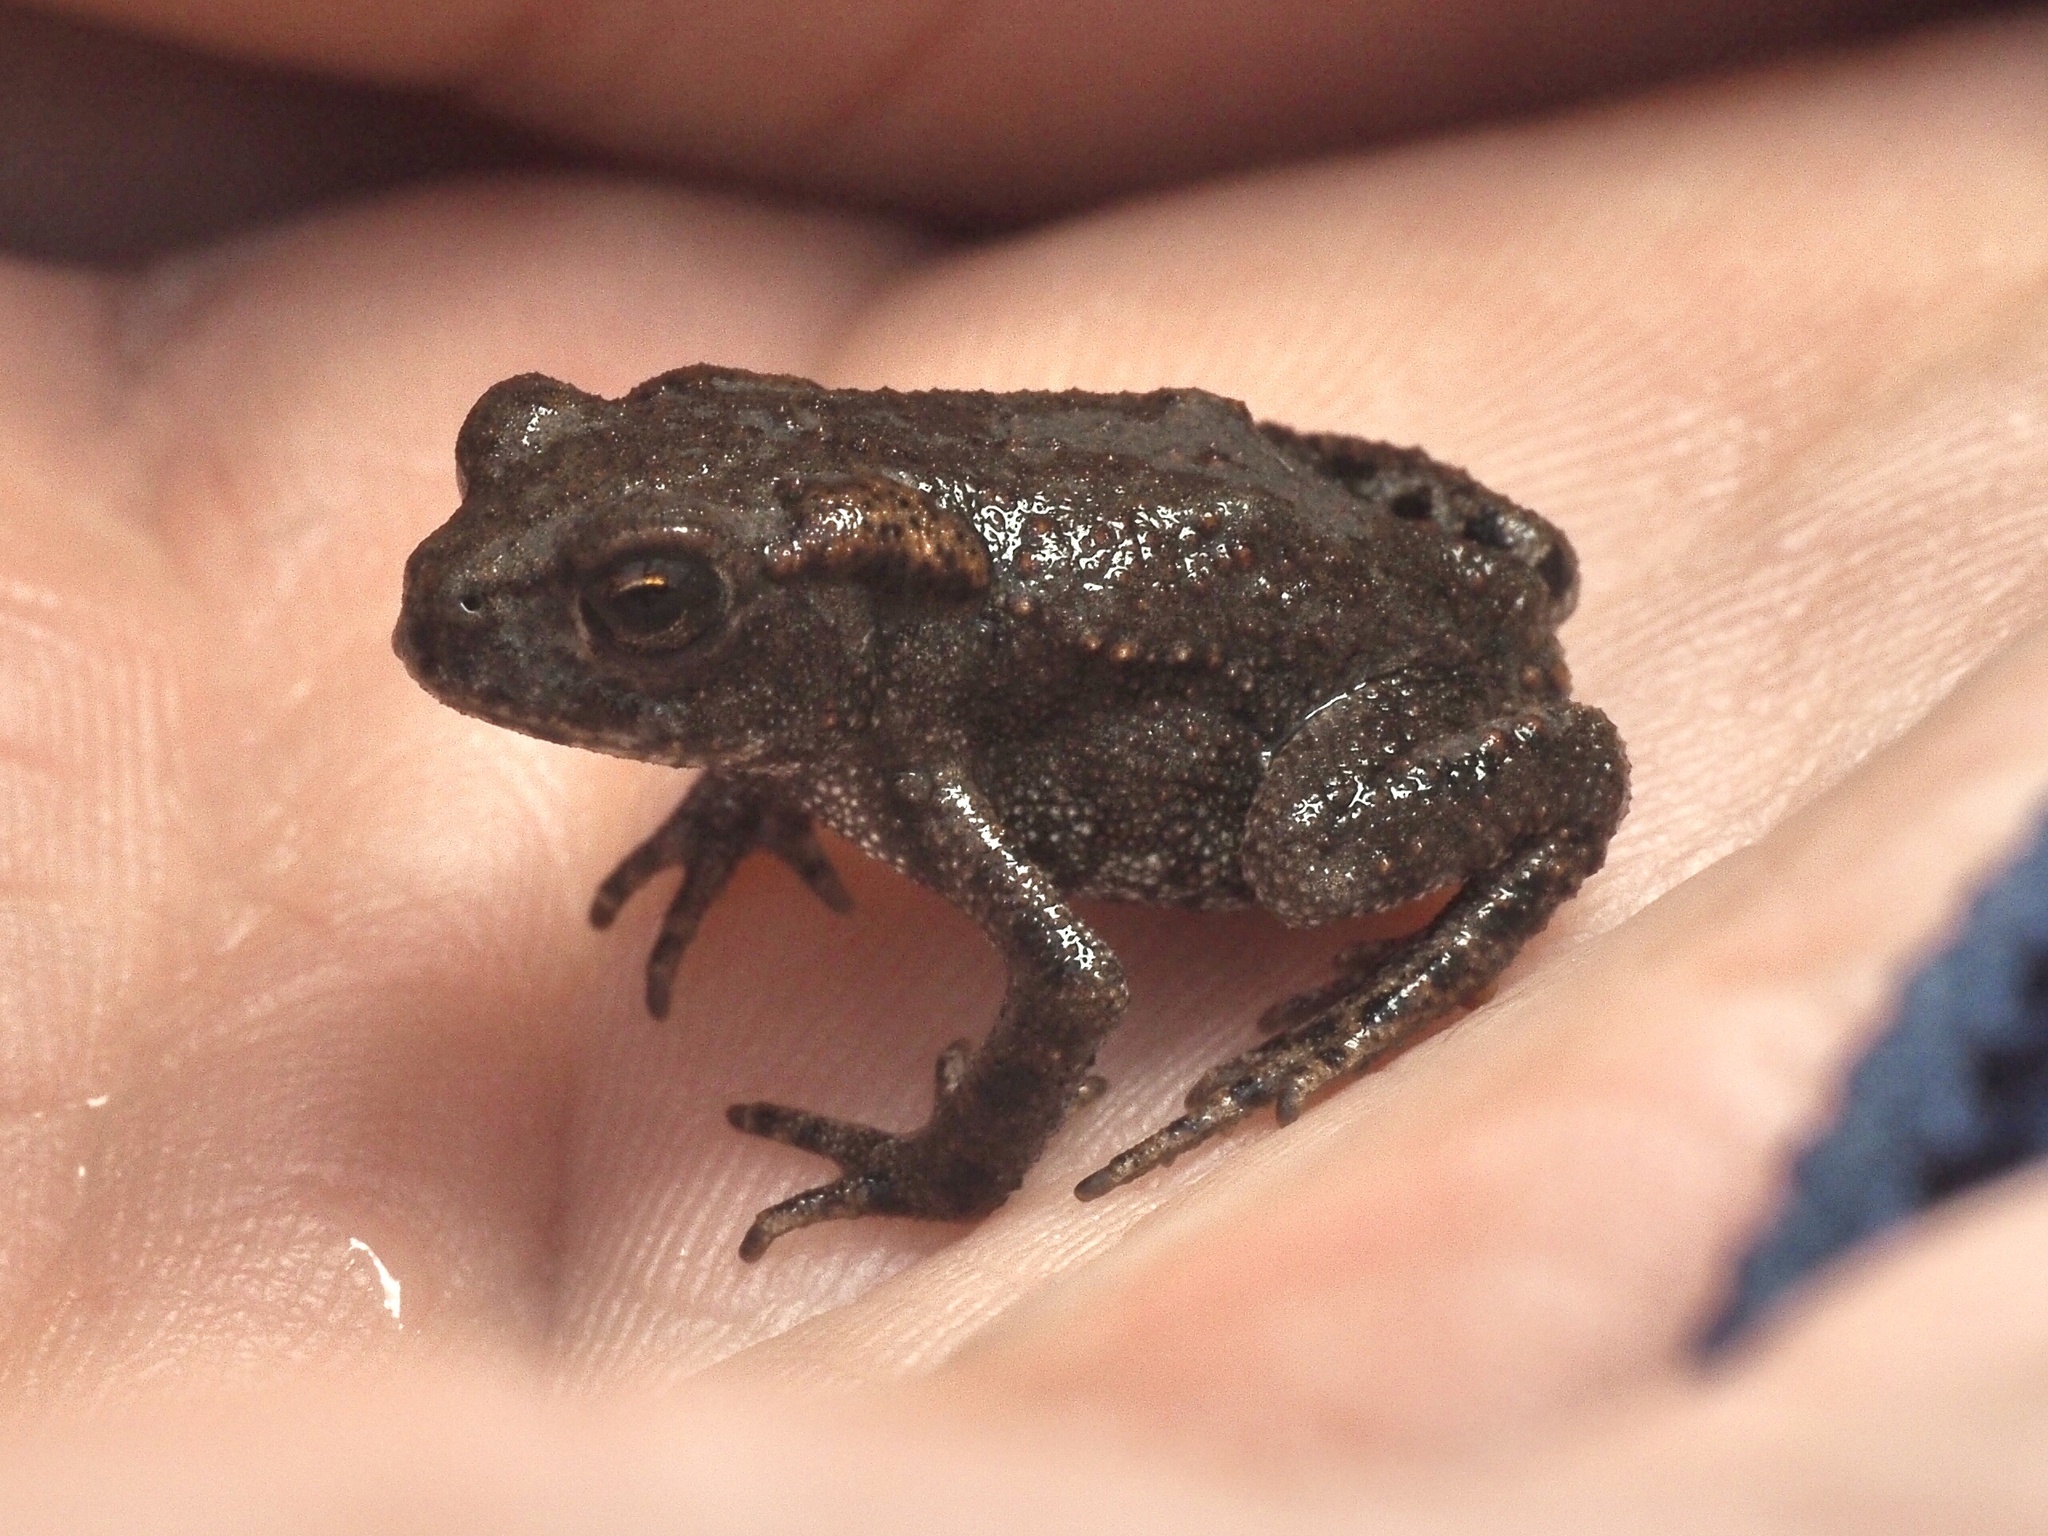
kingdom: Animalia
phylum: Chordata
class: Amphibia
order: Anura
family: Bufonidae
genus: Bufo
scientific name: Bufo bufo
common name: Common toad
